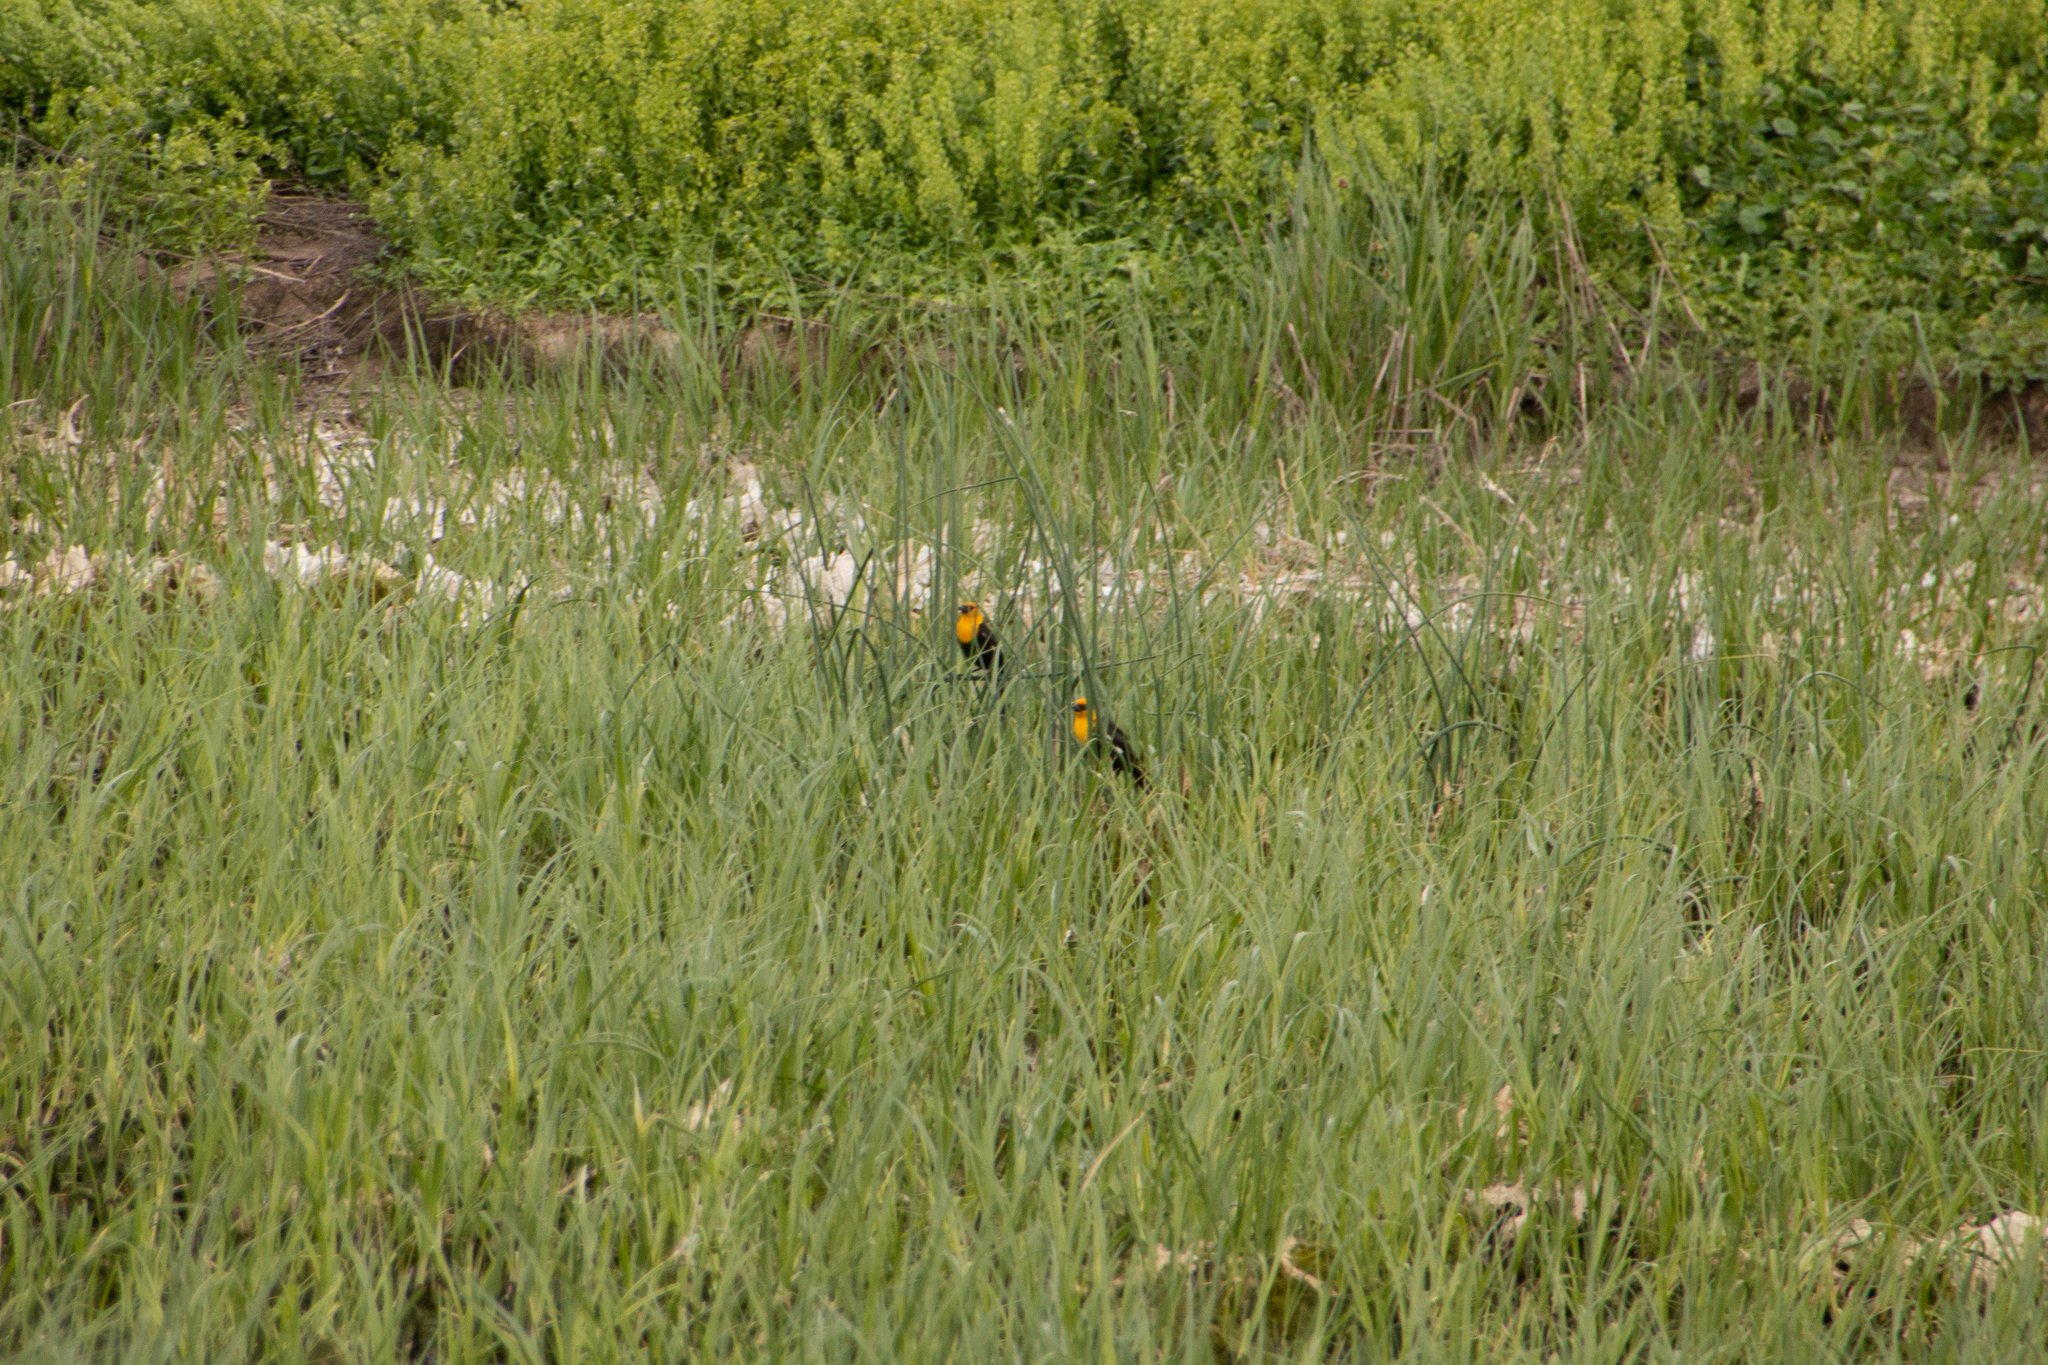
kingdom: Animalia
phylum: Chordata
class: Aves
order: Passeriformes
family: Icteridae
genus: Xanthocephalus
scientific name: Xanthocephalus xanthocephalus
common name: Yellow-headed blackbird
